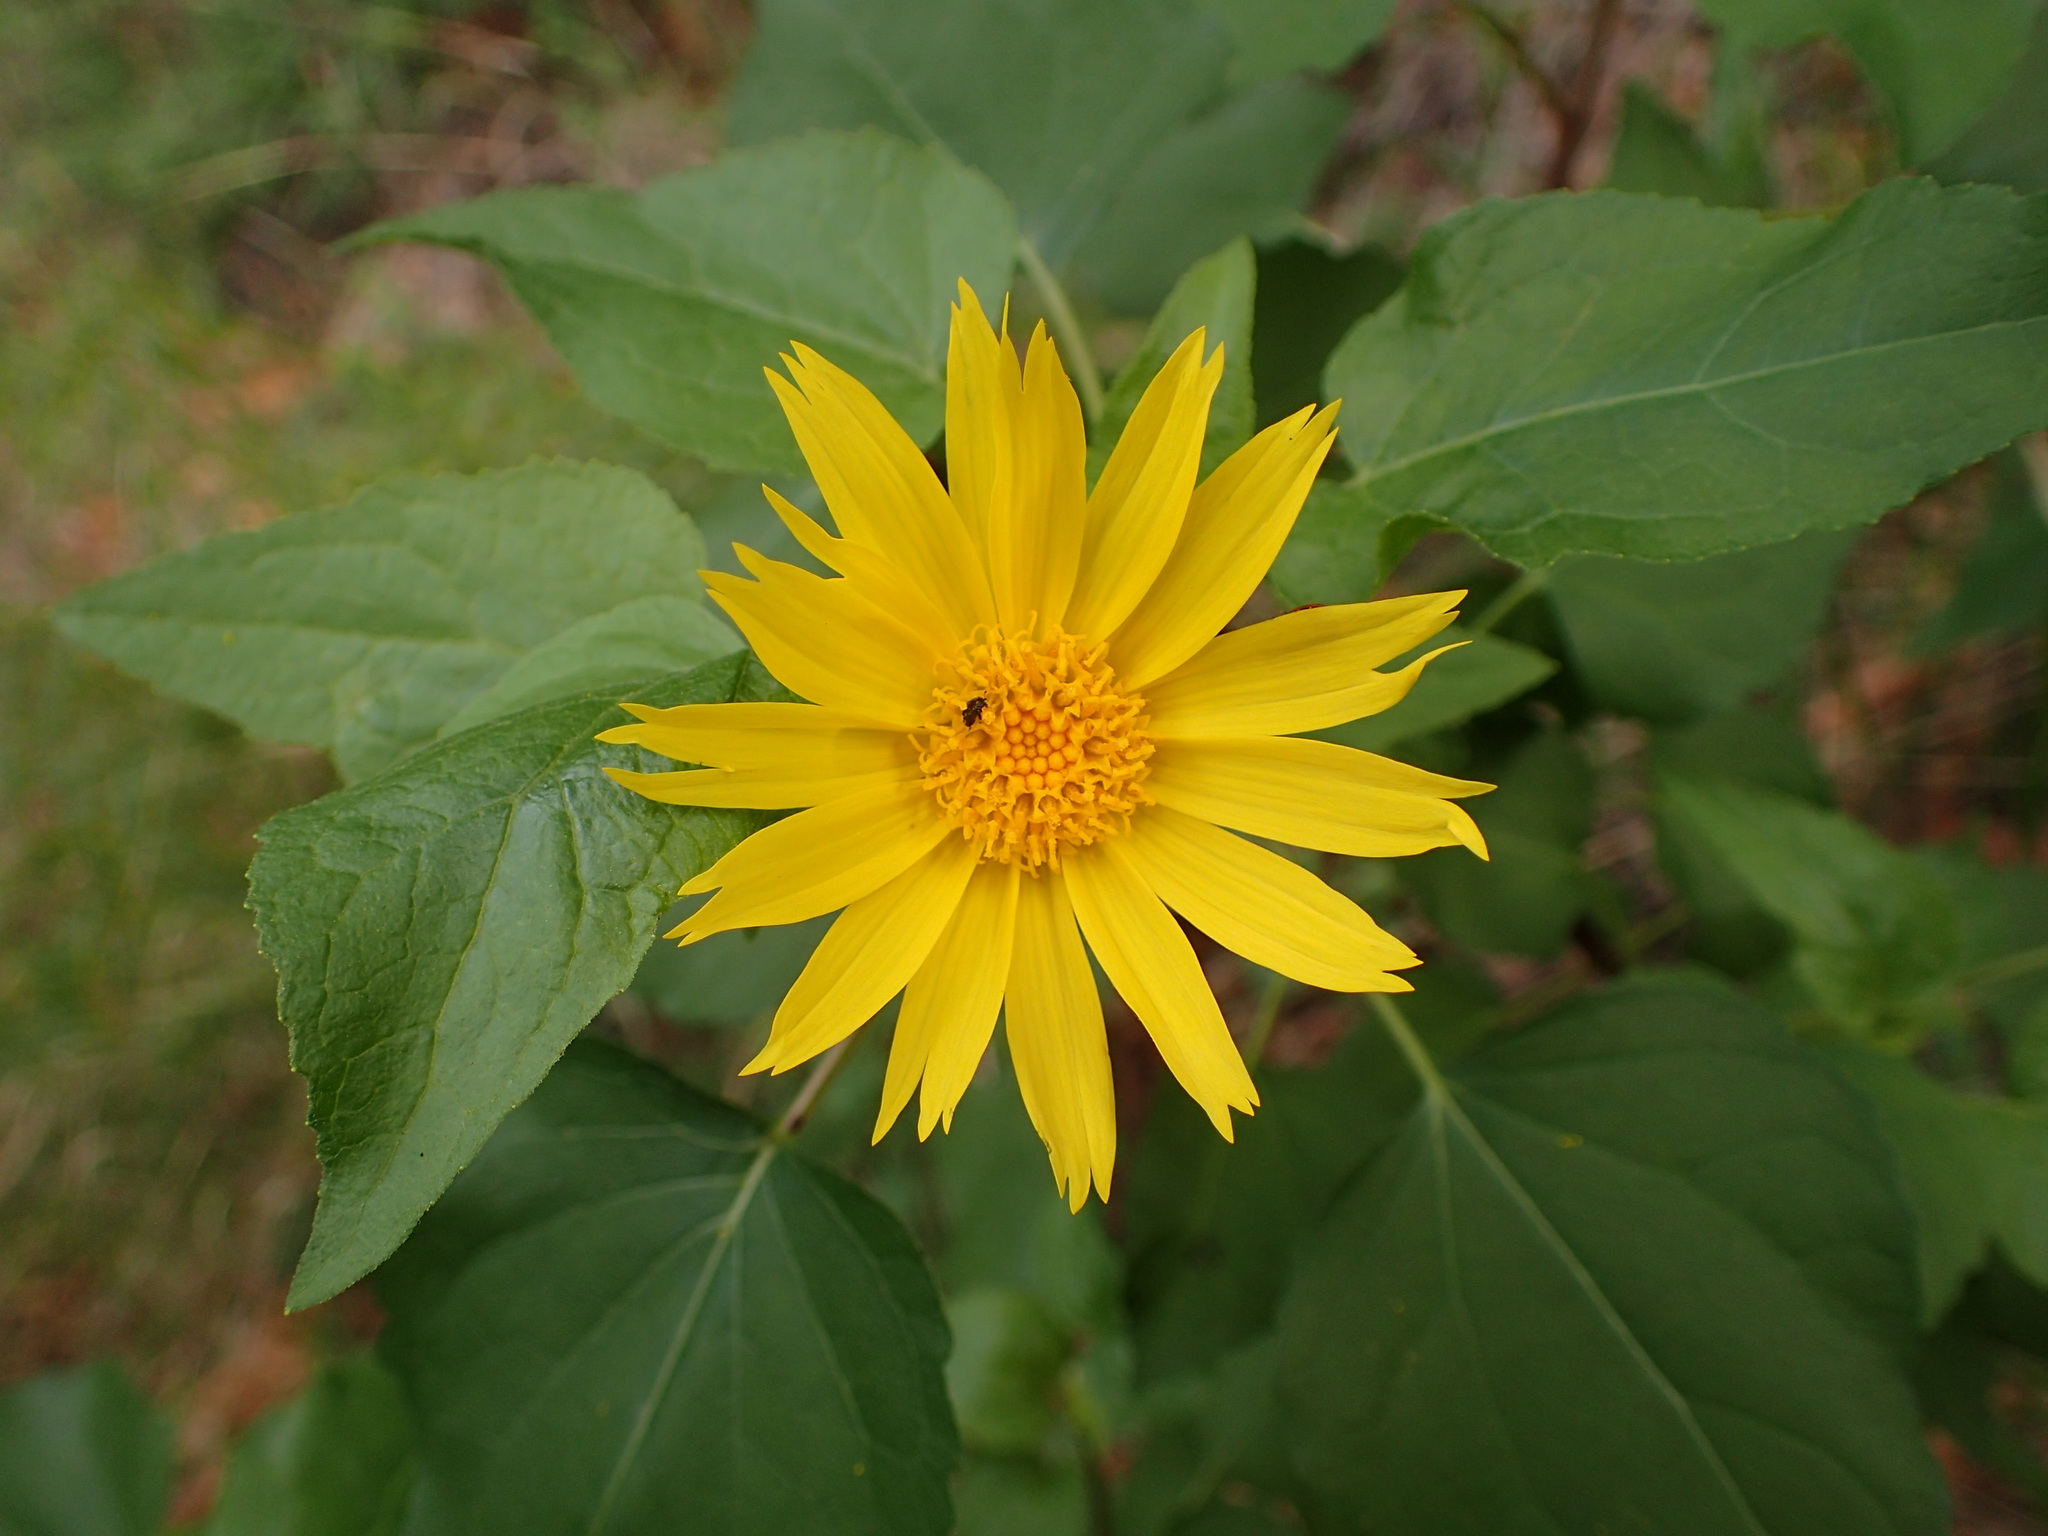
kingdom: Plantae
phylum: Tracheophyta
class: Magnoliopsida
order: Asterales
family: Asteraceae
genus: Venegasia
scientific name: Venegasia carpesioides
